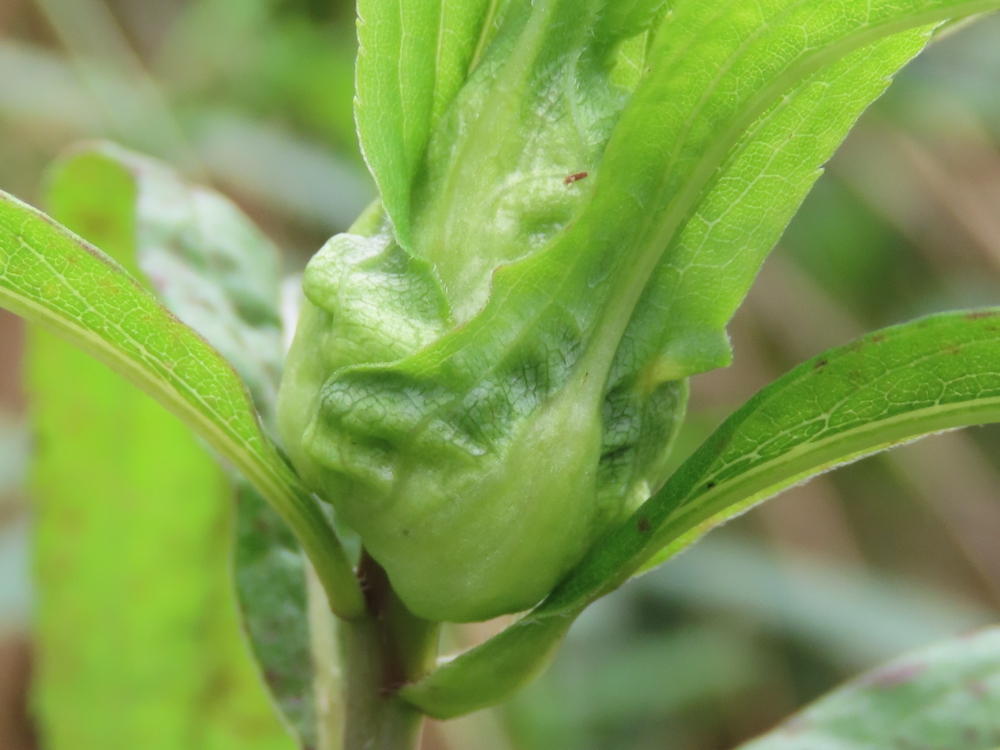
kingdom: Animalia
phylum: Arthropoda
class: Insecta
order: Diptera
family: Cecidomyiidae
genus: Dasineura
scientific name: Dasineura folliculi
